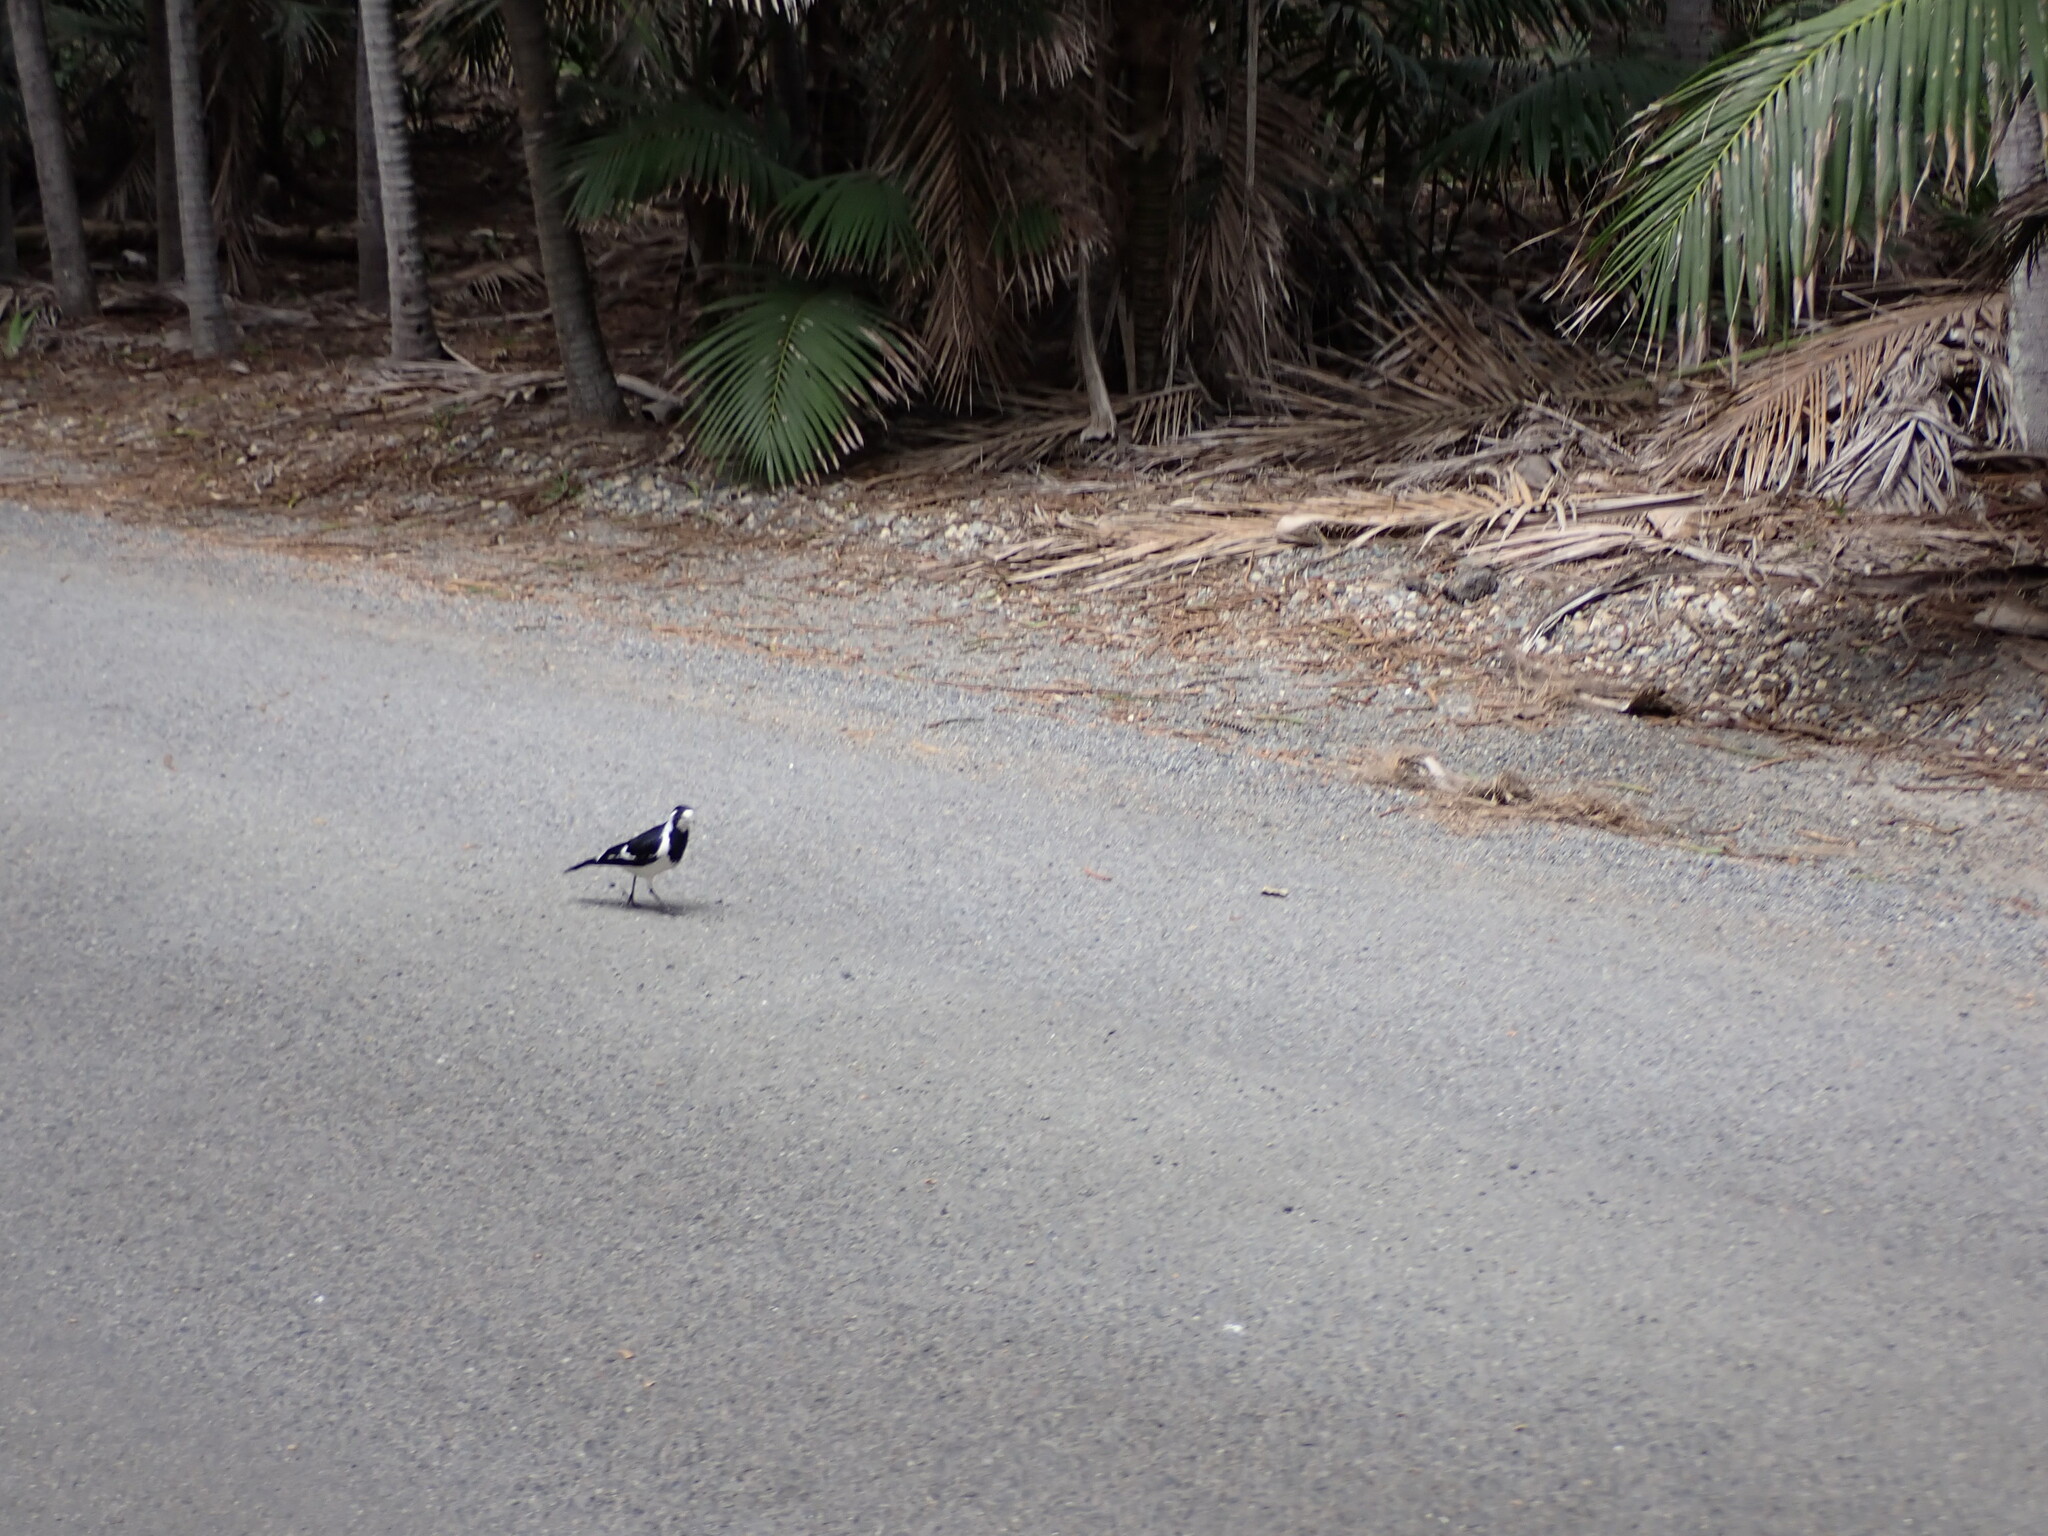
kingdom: Animalia
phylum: Chordata
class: Aves
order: Passeriformes
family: Monarchidae
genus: Grallina
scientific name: Grallina cyanoleuca
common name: Magpie-lark
